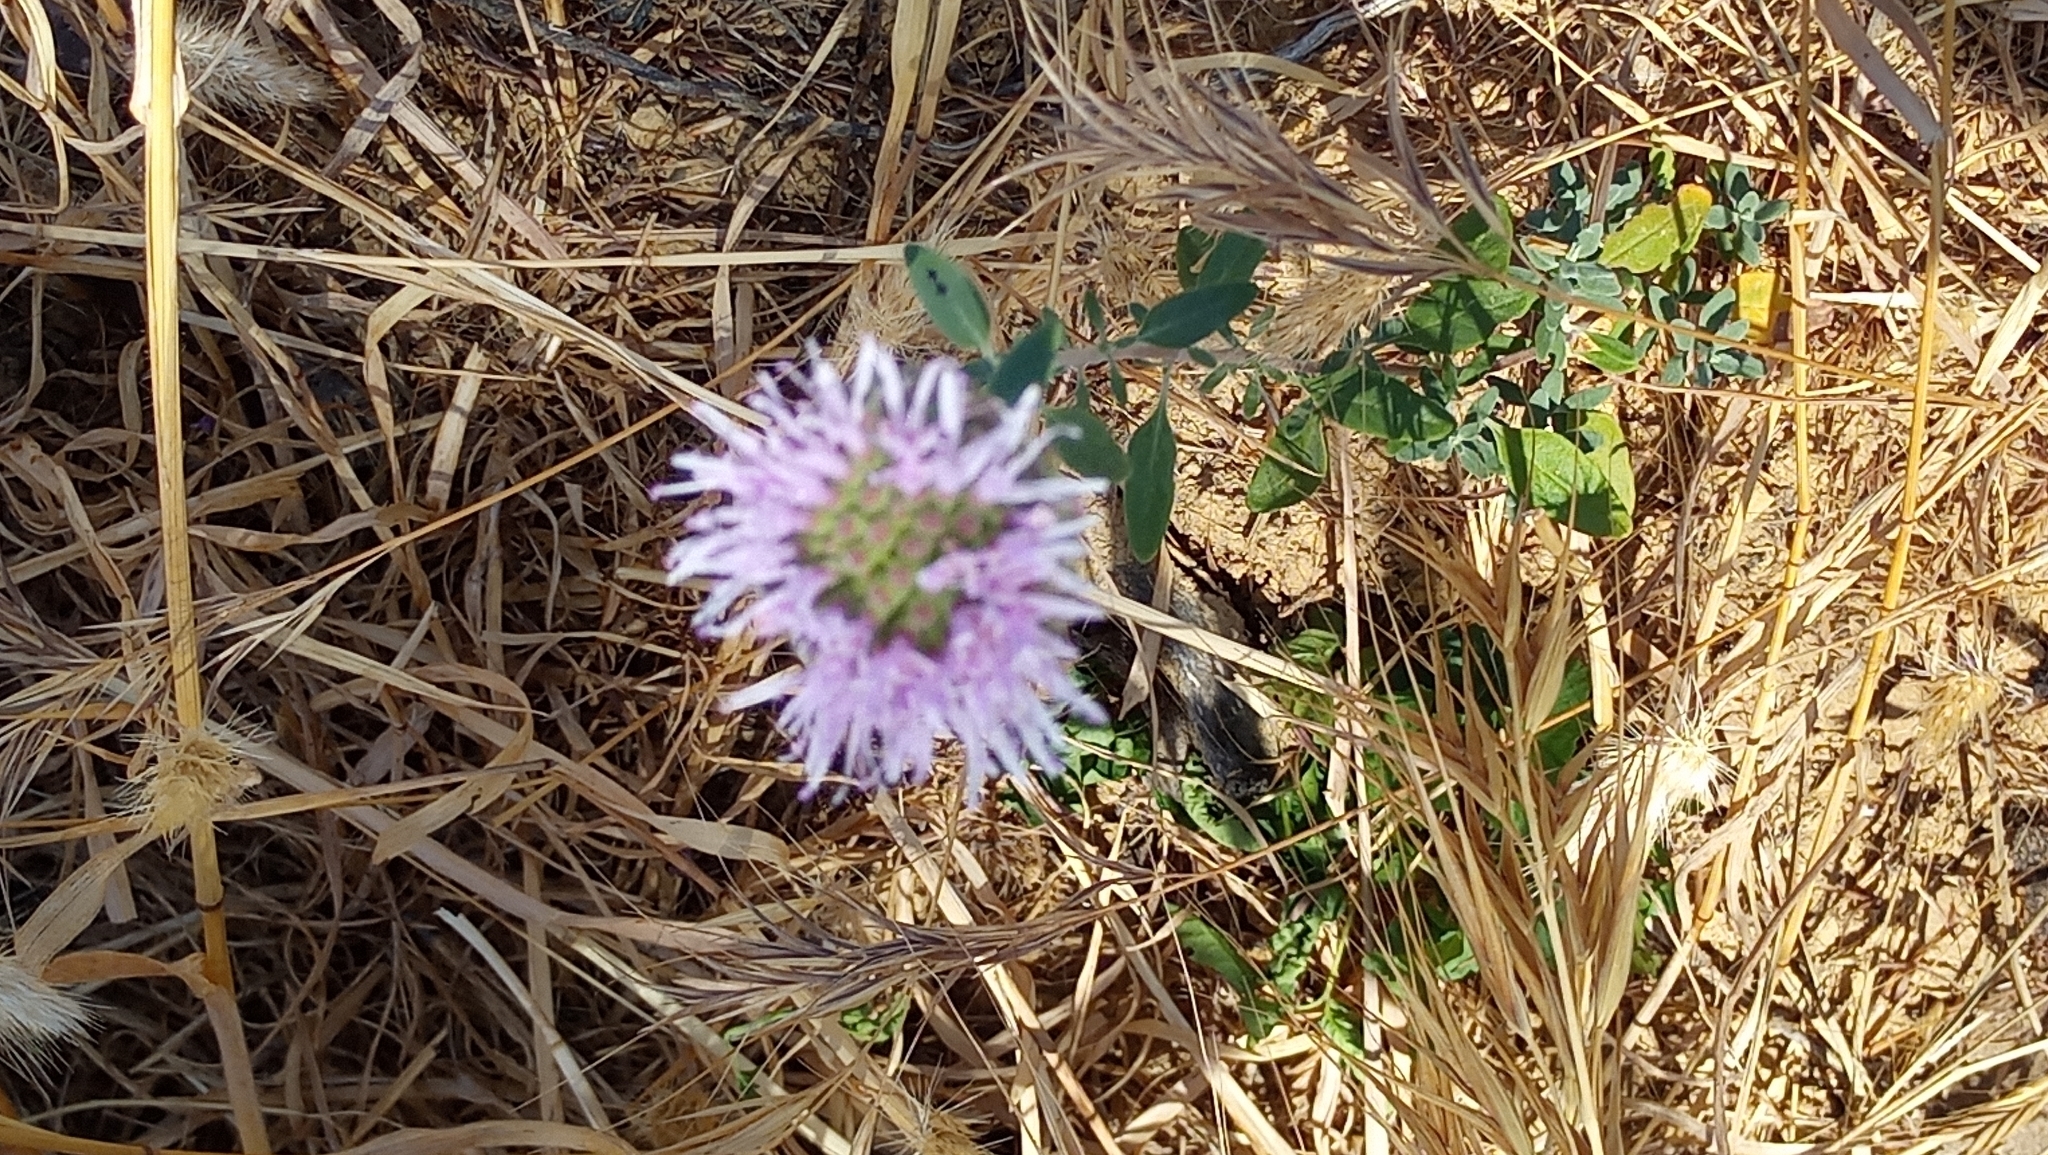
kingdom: Plantae
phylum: Tracheophyta
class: Magnoliopsida
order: Lamiales
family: Lamiaceae
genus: Monardella
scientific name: Monardella odoratissima
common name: Pacific monardella
